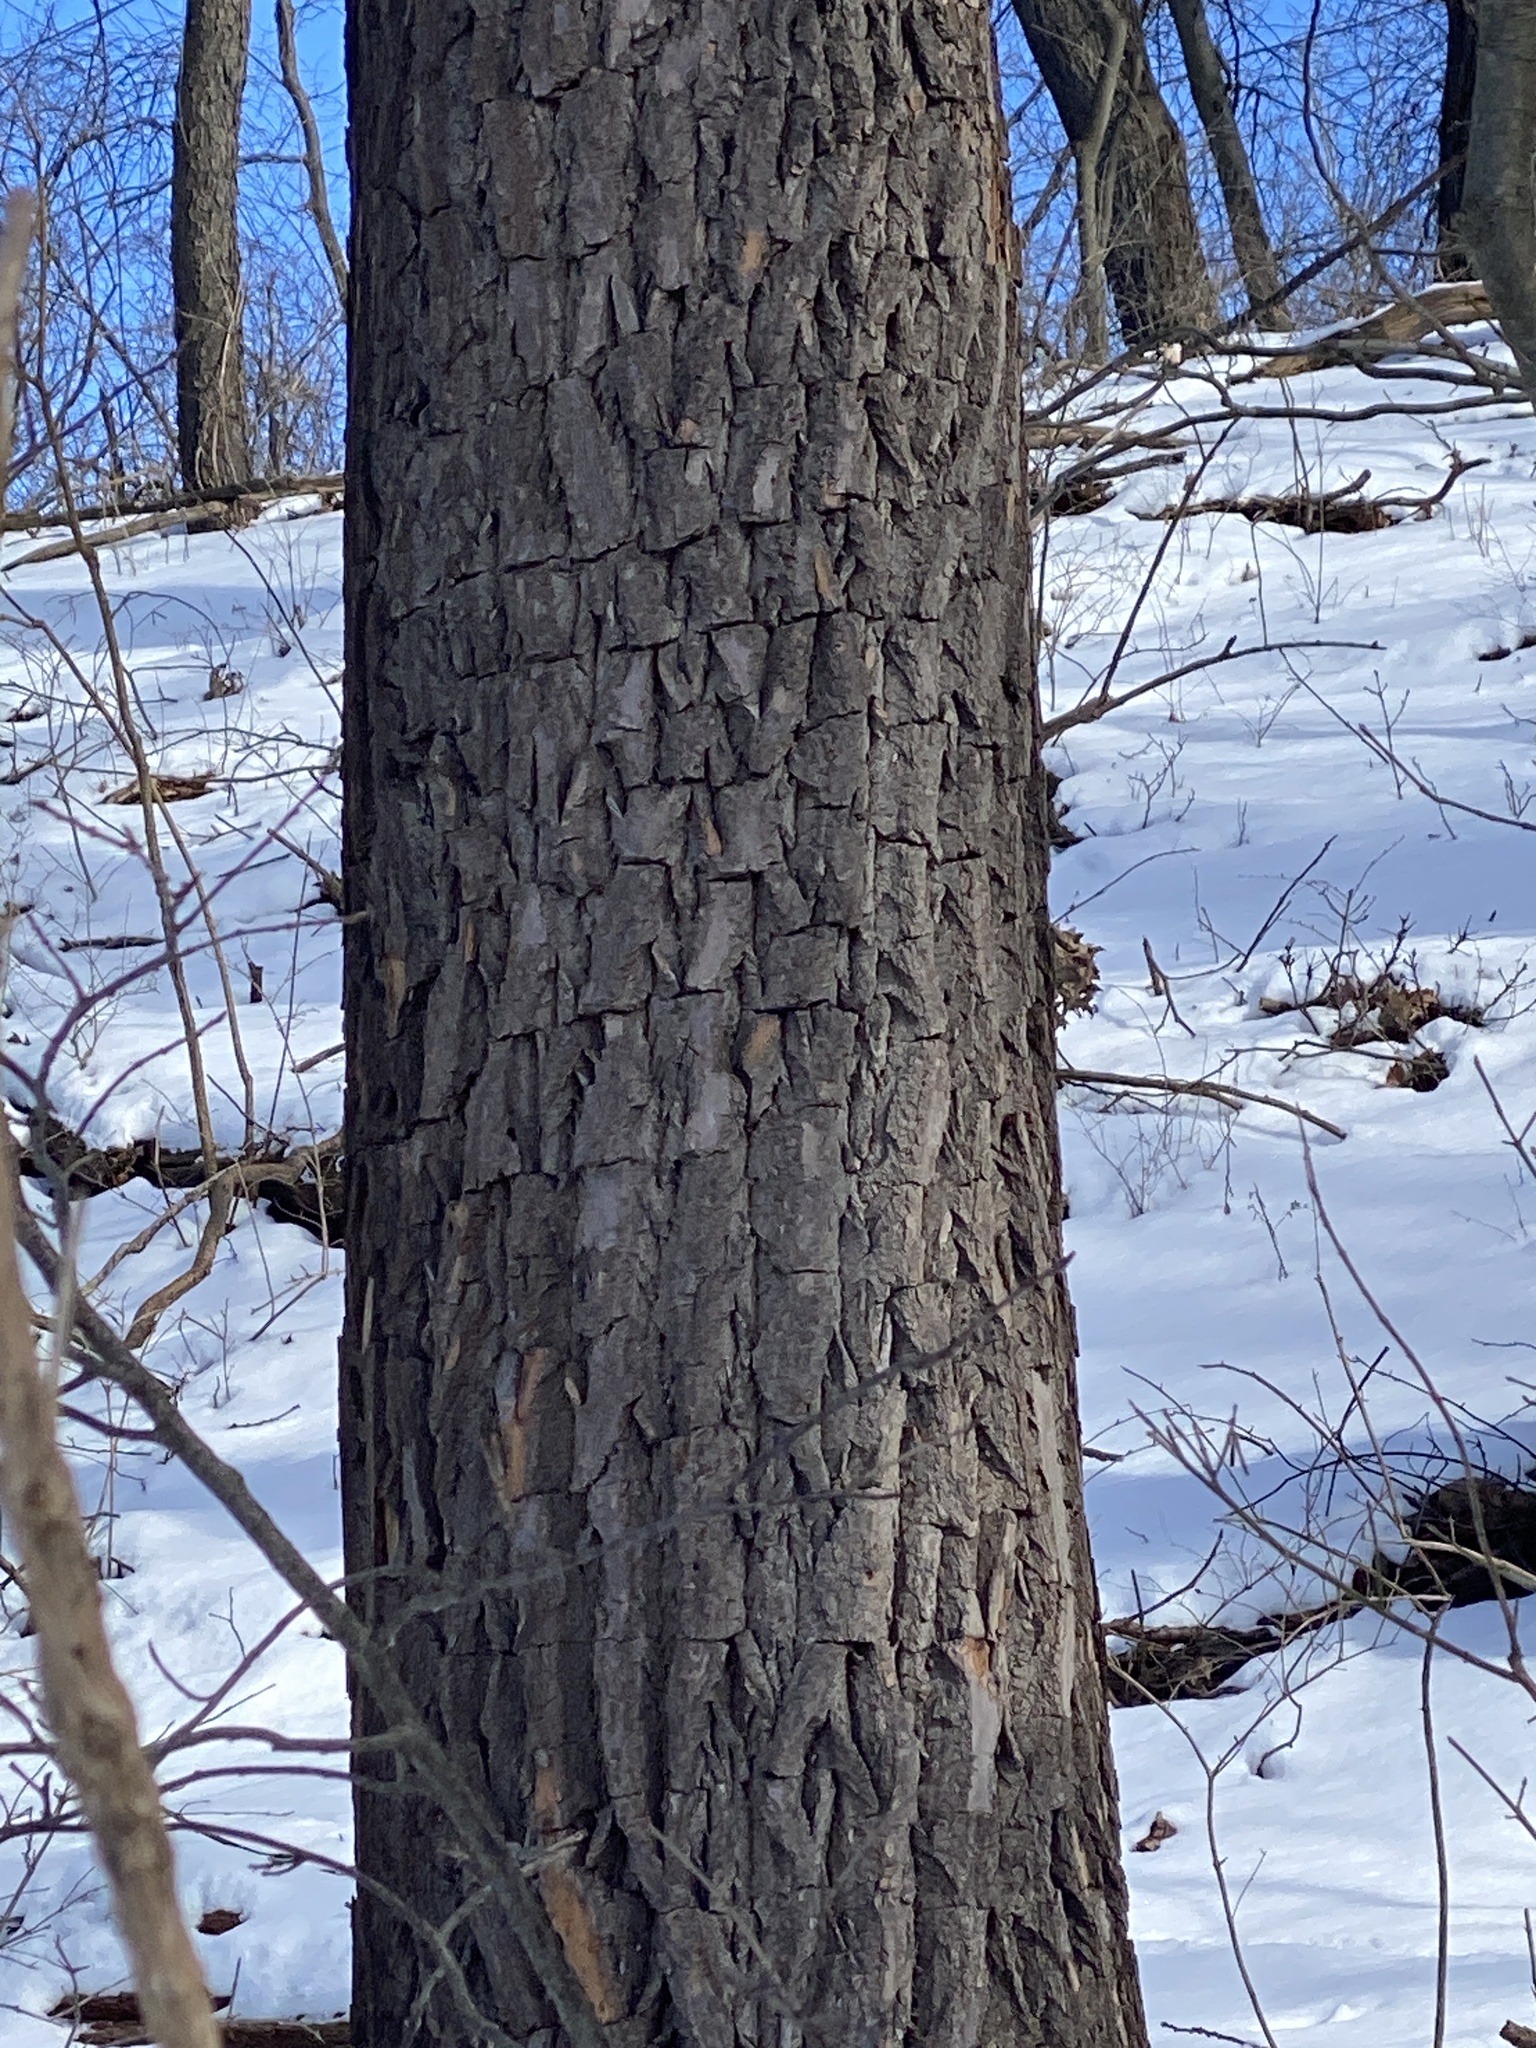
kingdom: Plantae
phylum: Tracheophyta
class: Magnoliopsida
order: Laurales
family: Lauraceae
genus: Sassafras
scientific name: Sassafras albidum
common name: Sassafras
